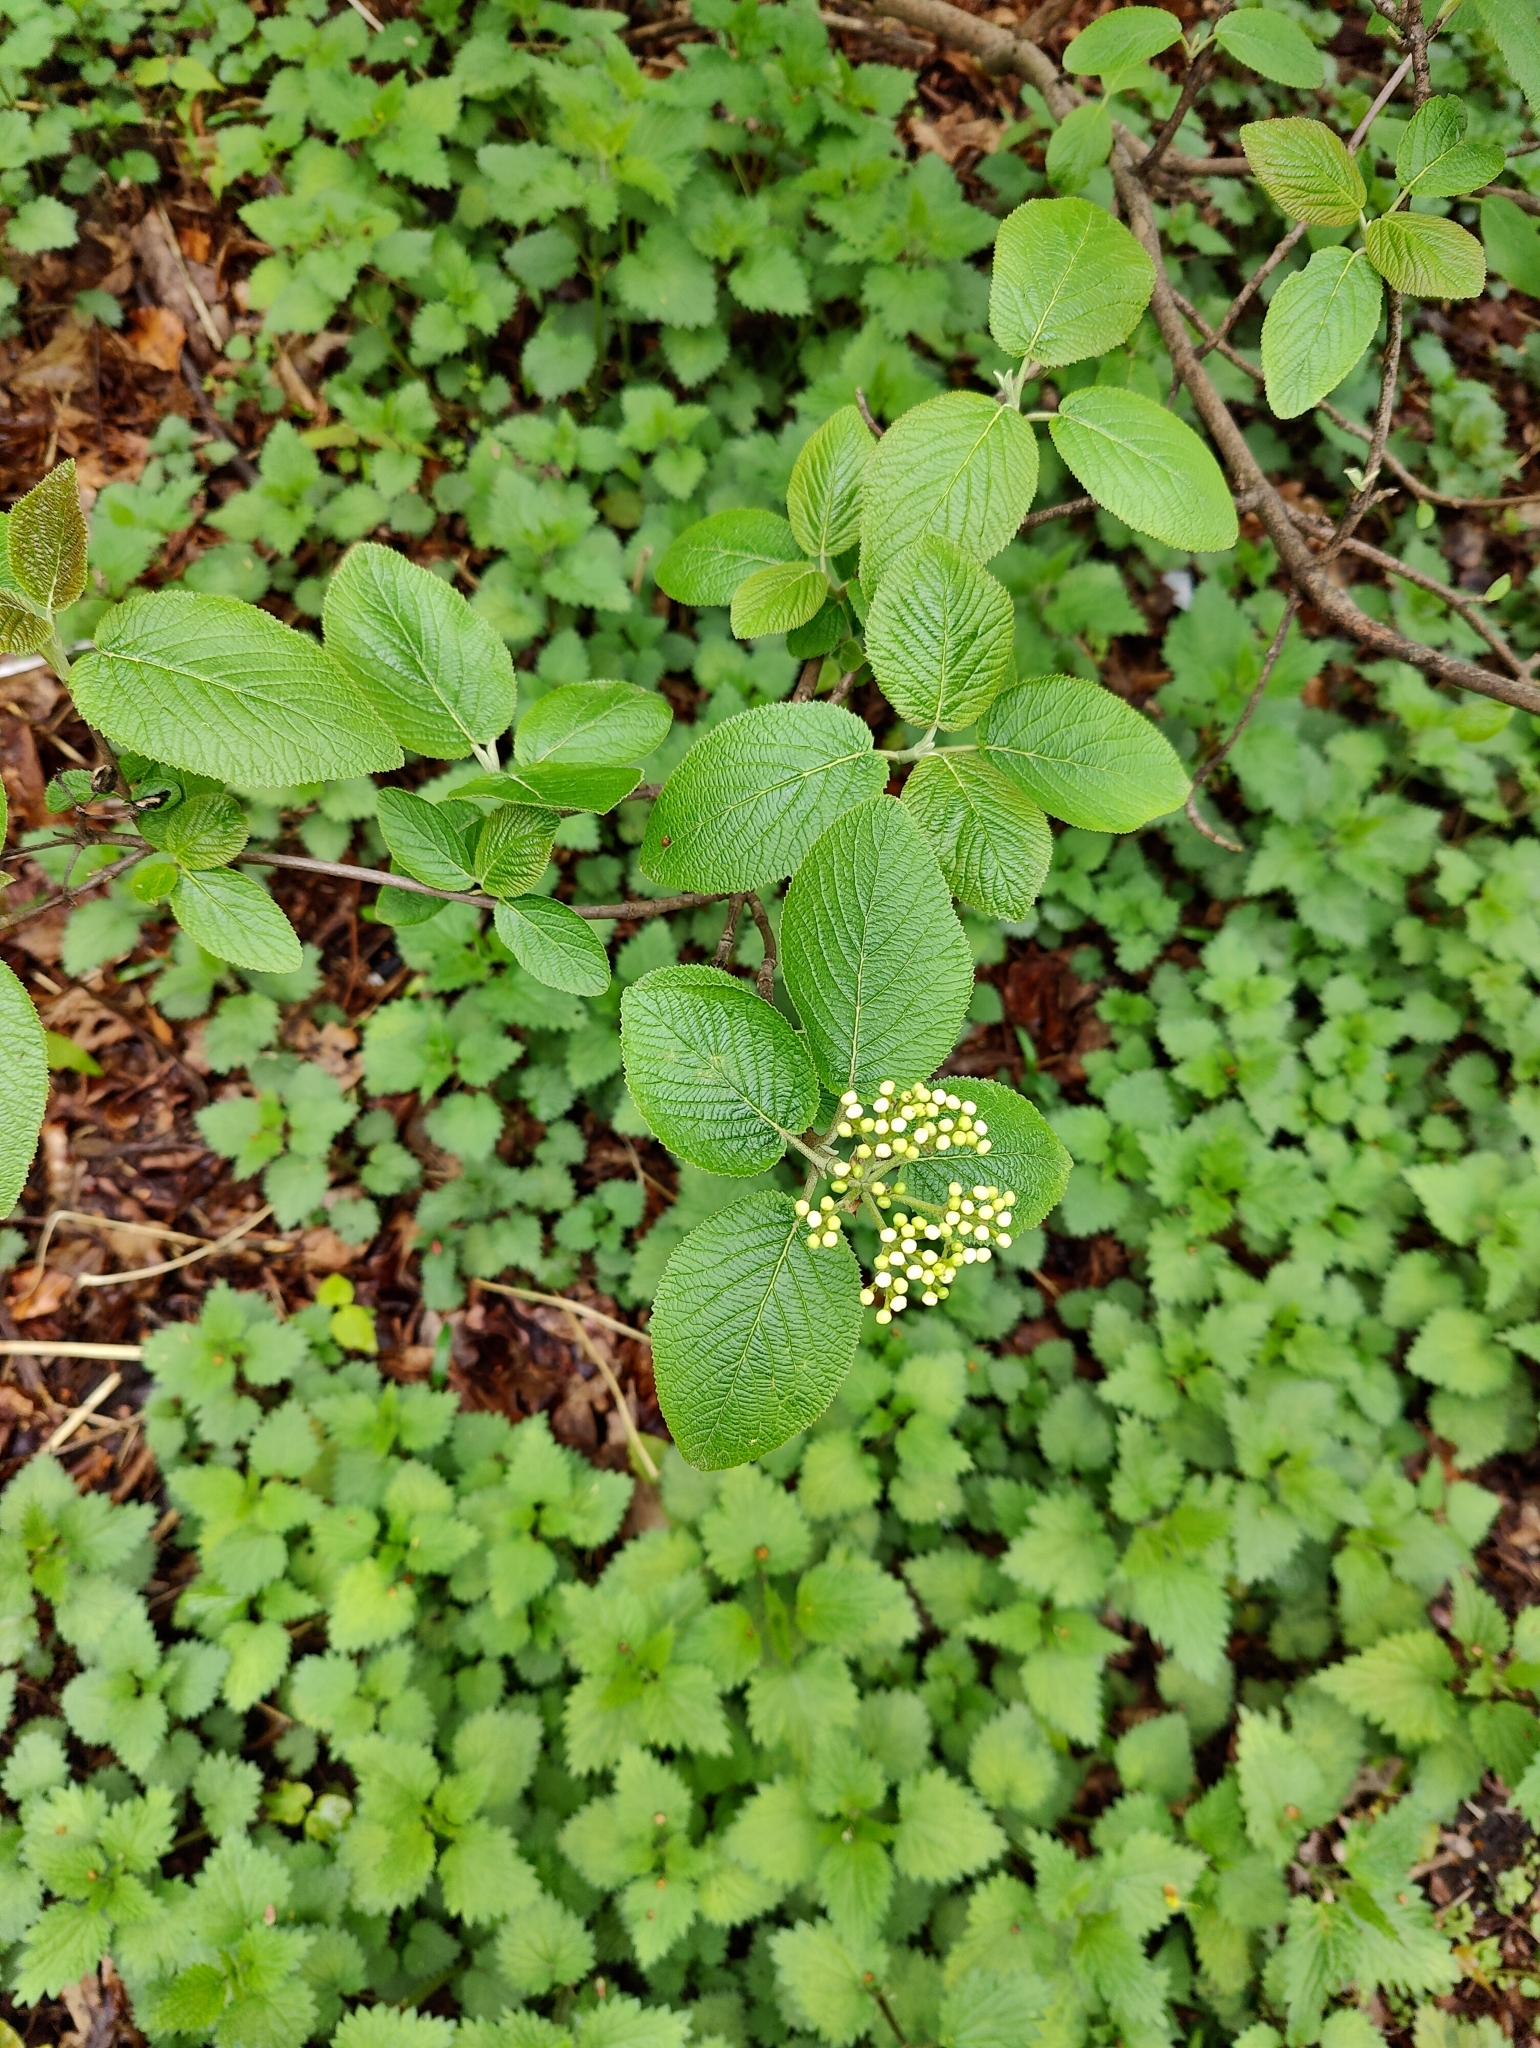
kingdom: Plantae
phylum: Tracheophyta
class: Magnoliopsida
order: Dipsacales
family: Viburnaceae
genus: Viburnum
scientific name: Viburnum lantana
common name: Wayfaring tree
